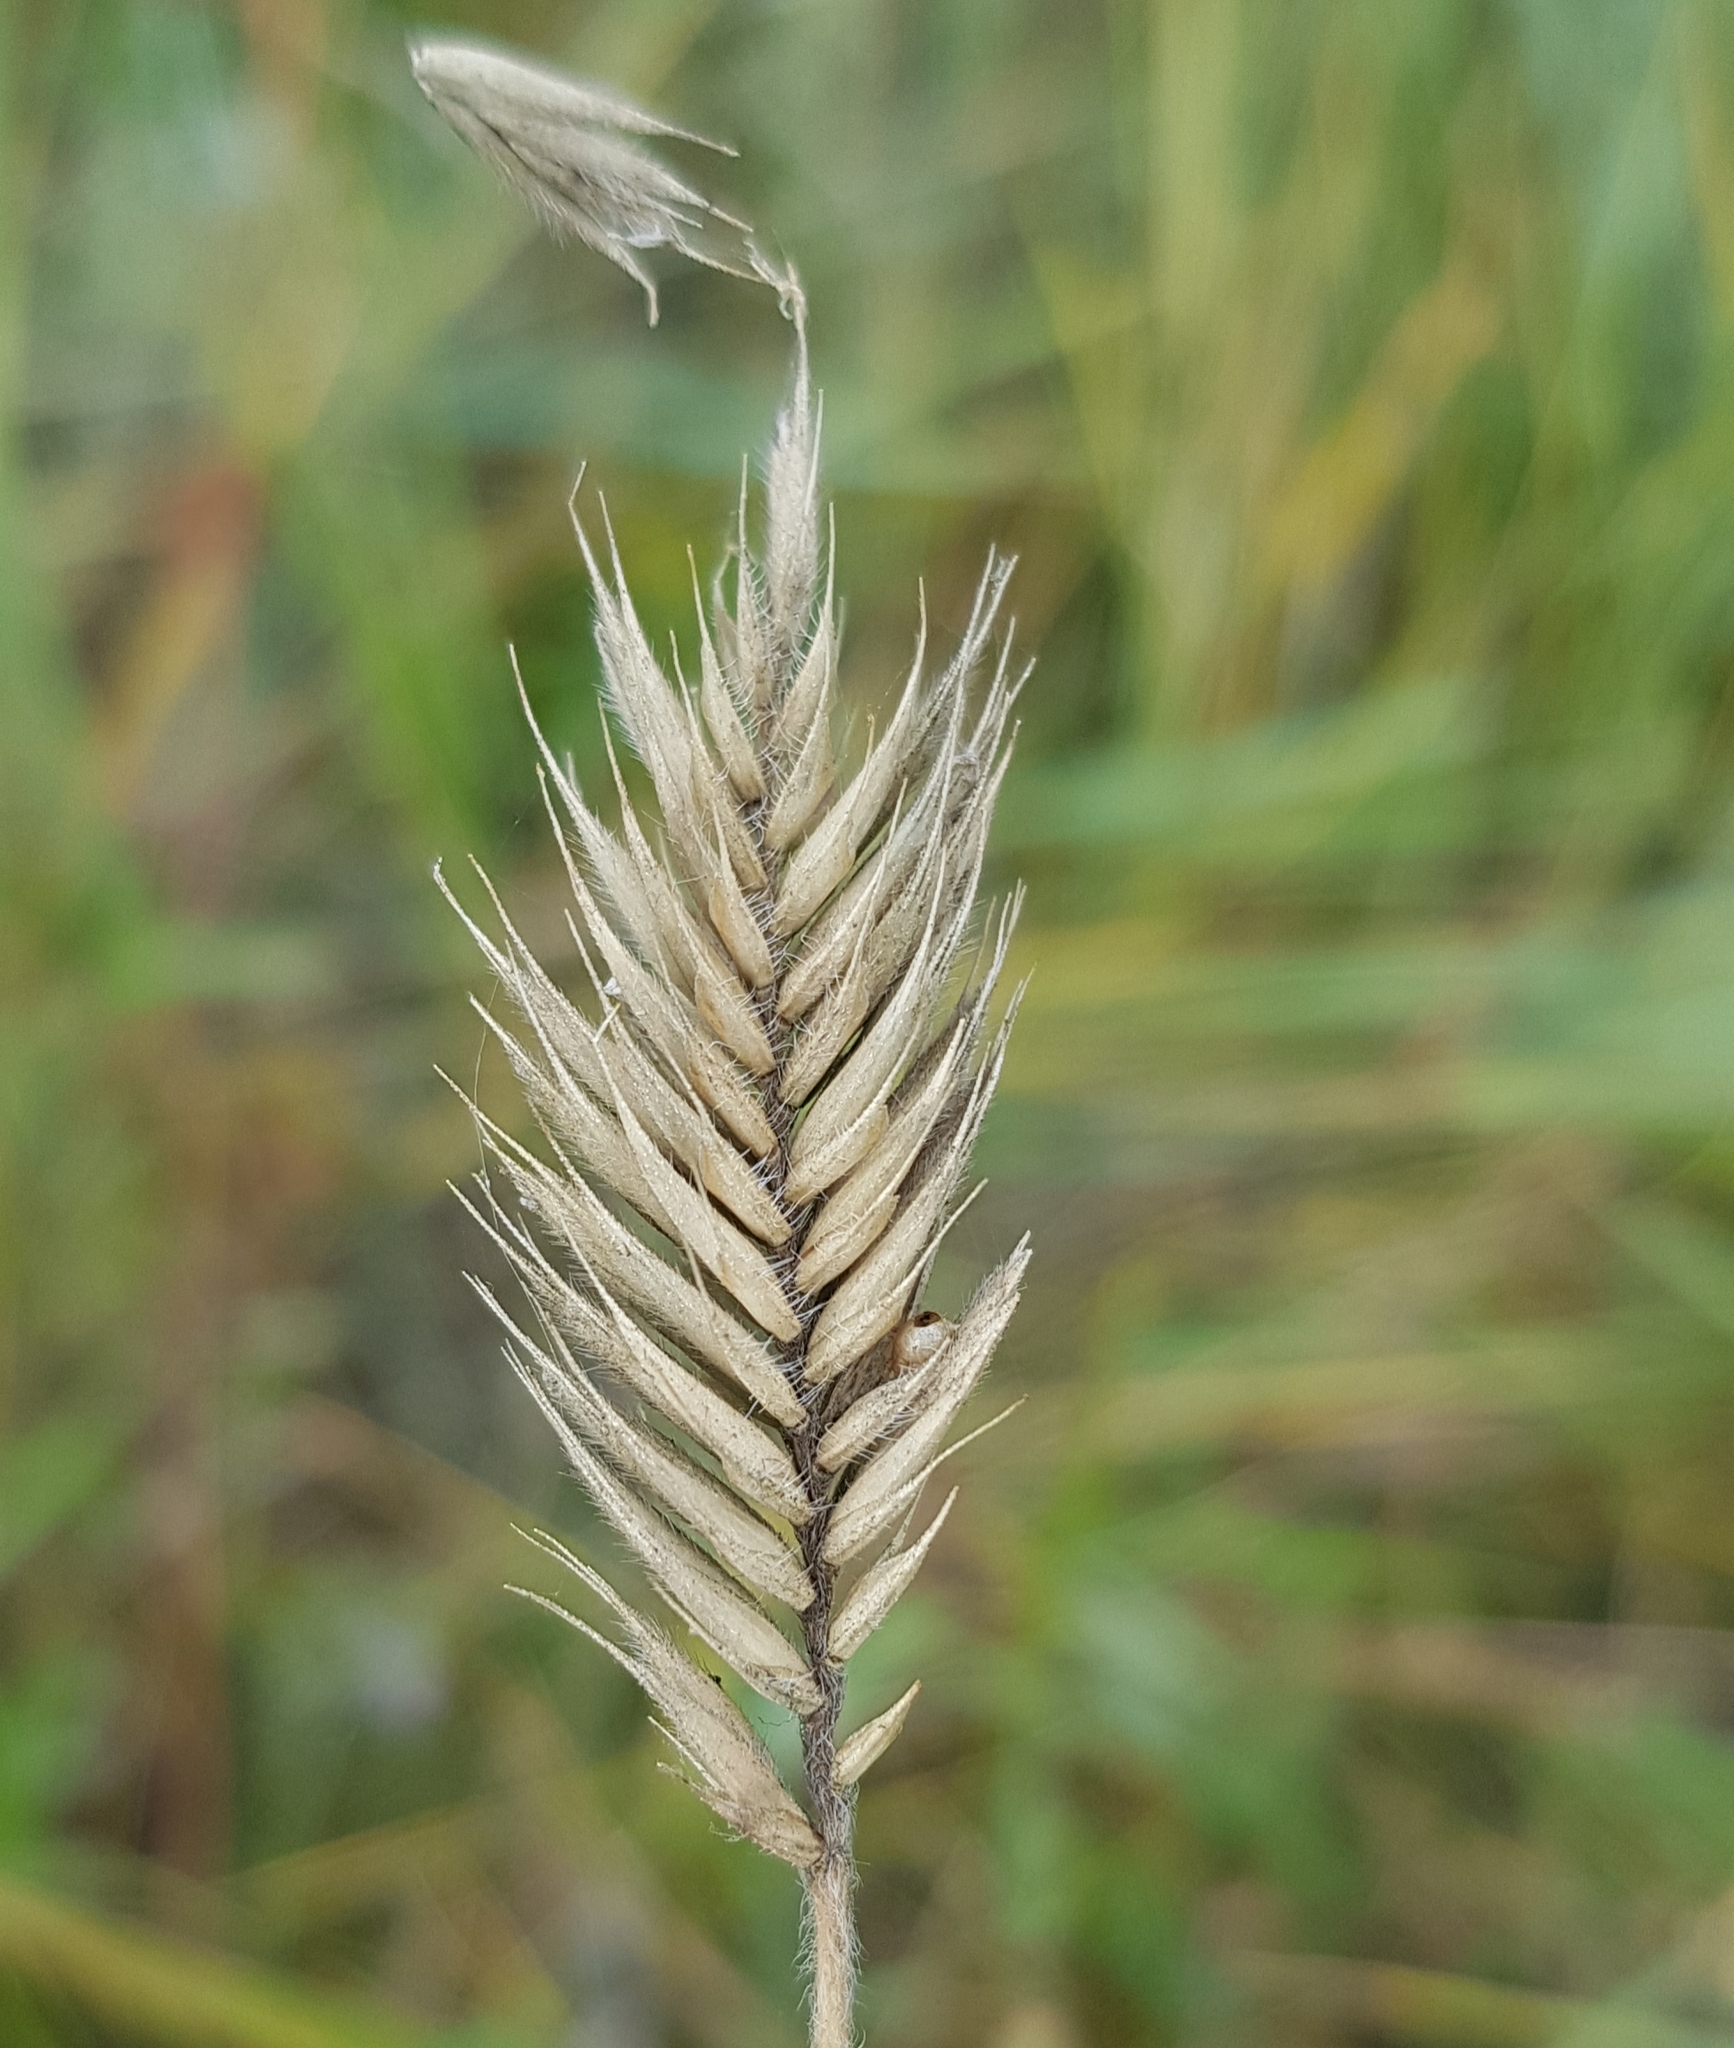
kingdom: Plantae
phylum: Tracheophyta
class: Liliopsida
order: Poales
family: Poaceae
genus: Agropyron
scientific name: Agropyron cristatum
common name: Crested wheatgrass
